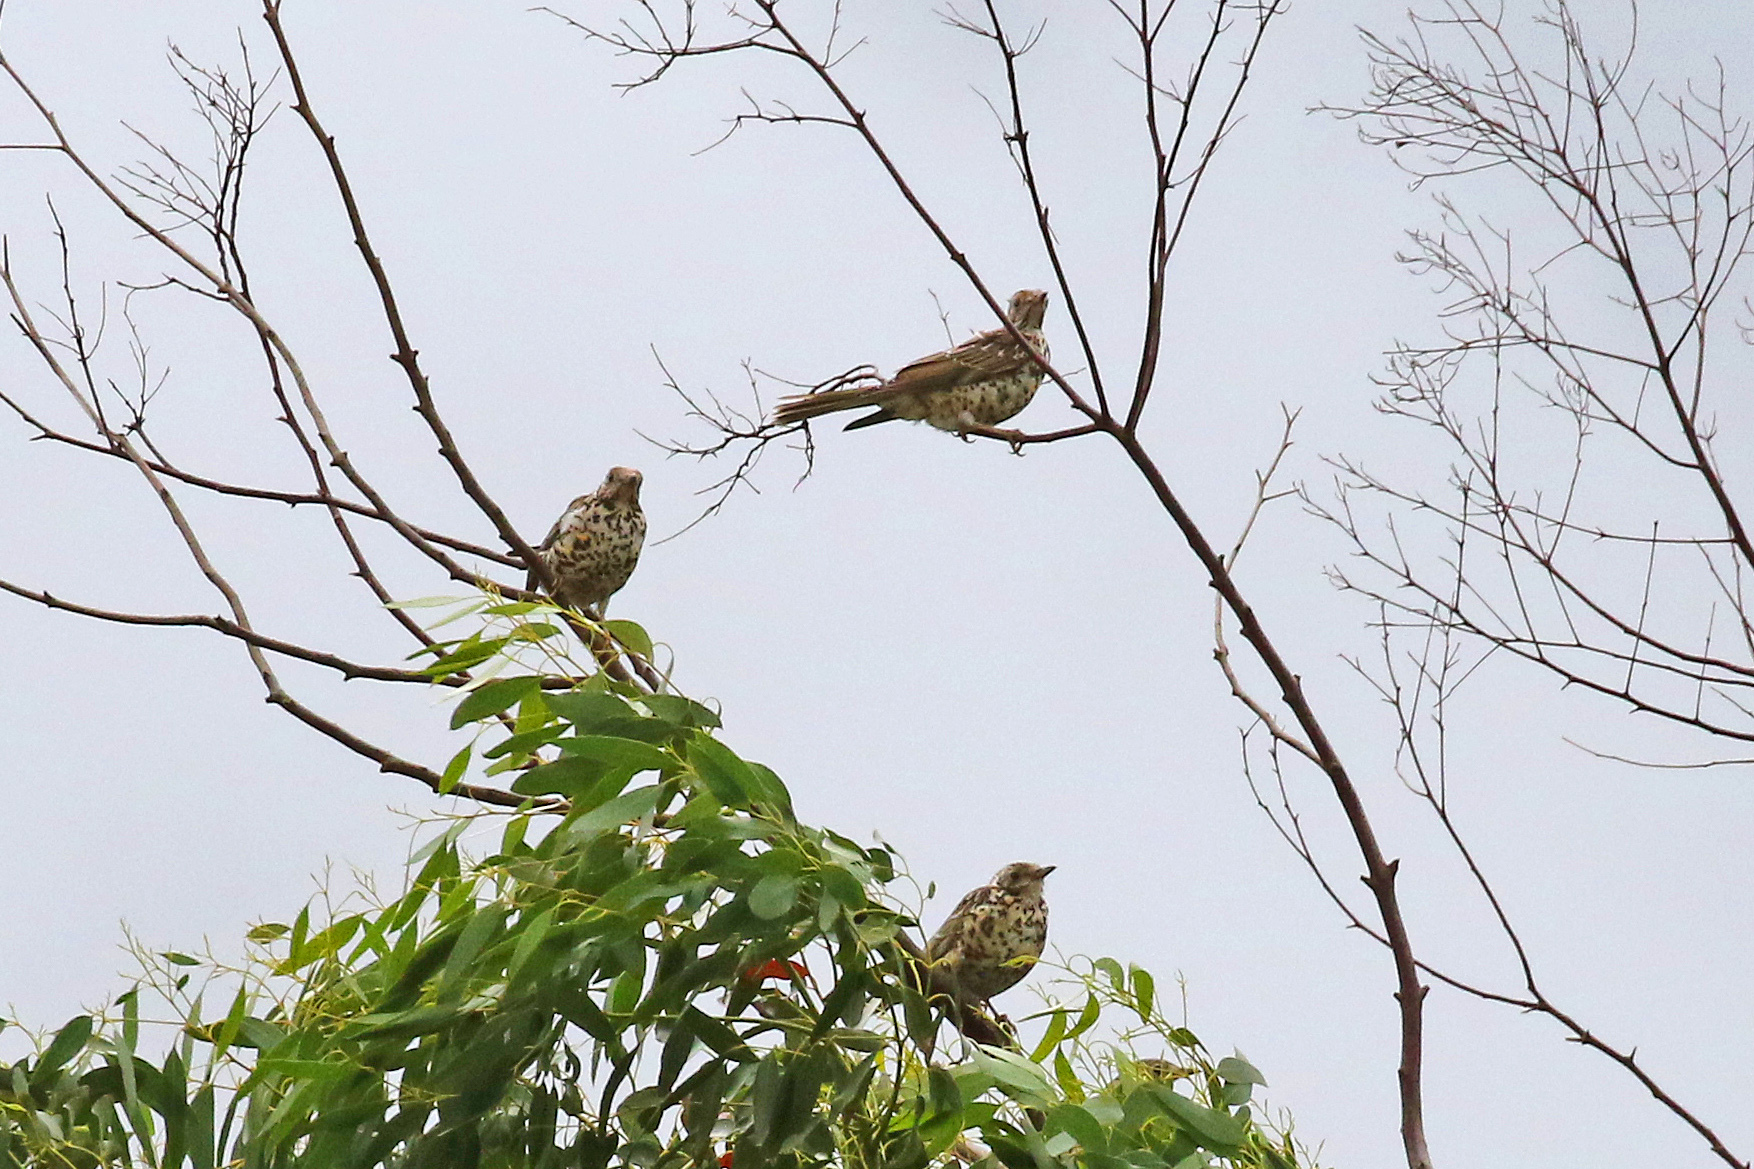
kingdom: Animalia
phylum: Chordata
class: Aves
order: Passeriformes
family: Turdidae
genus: Turdus
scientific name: Turdus viscivorus
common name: Mistle thrush
